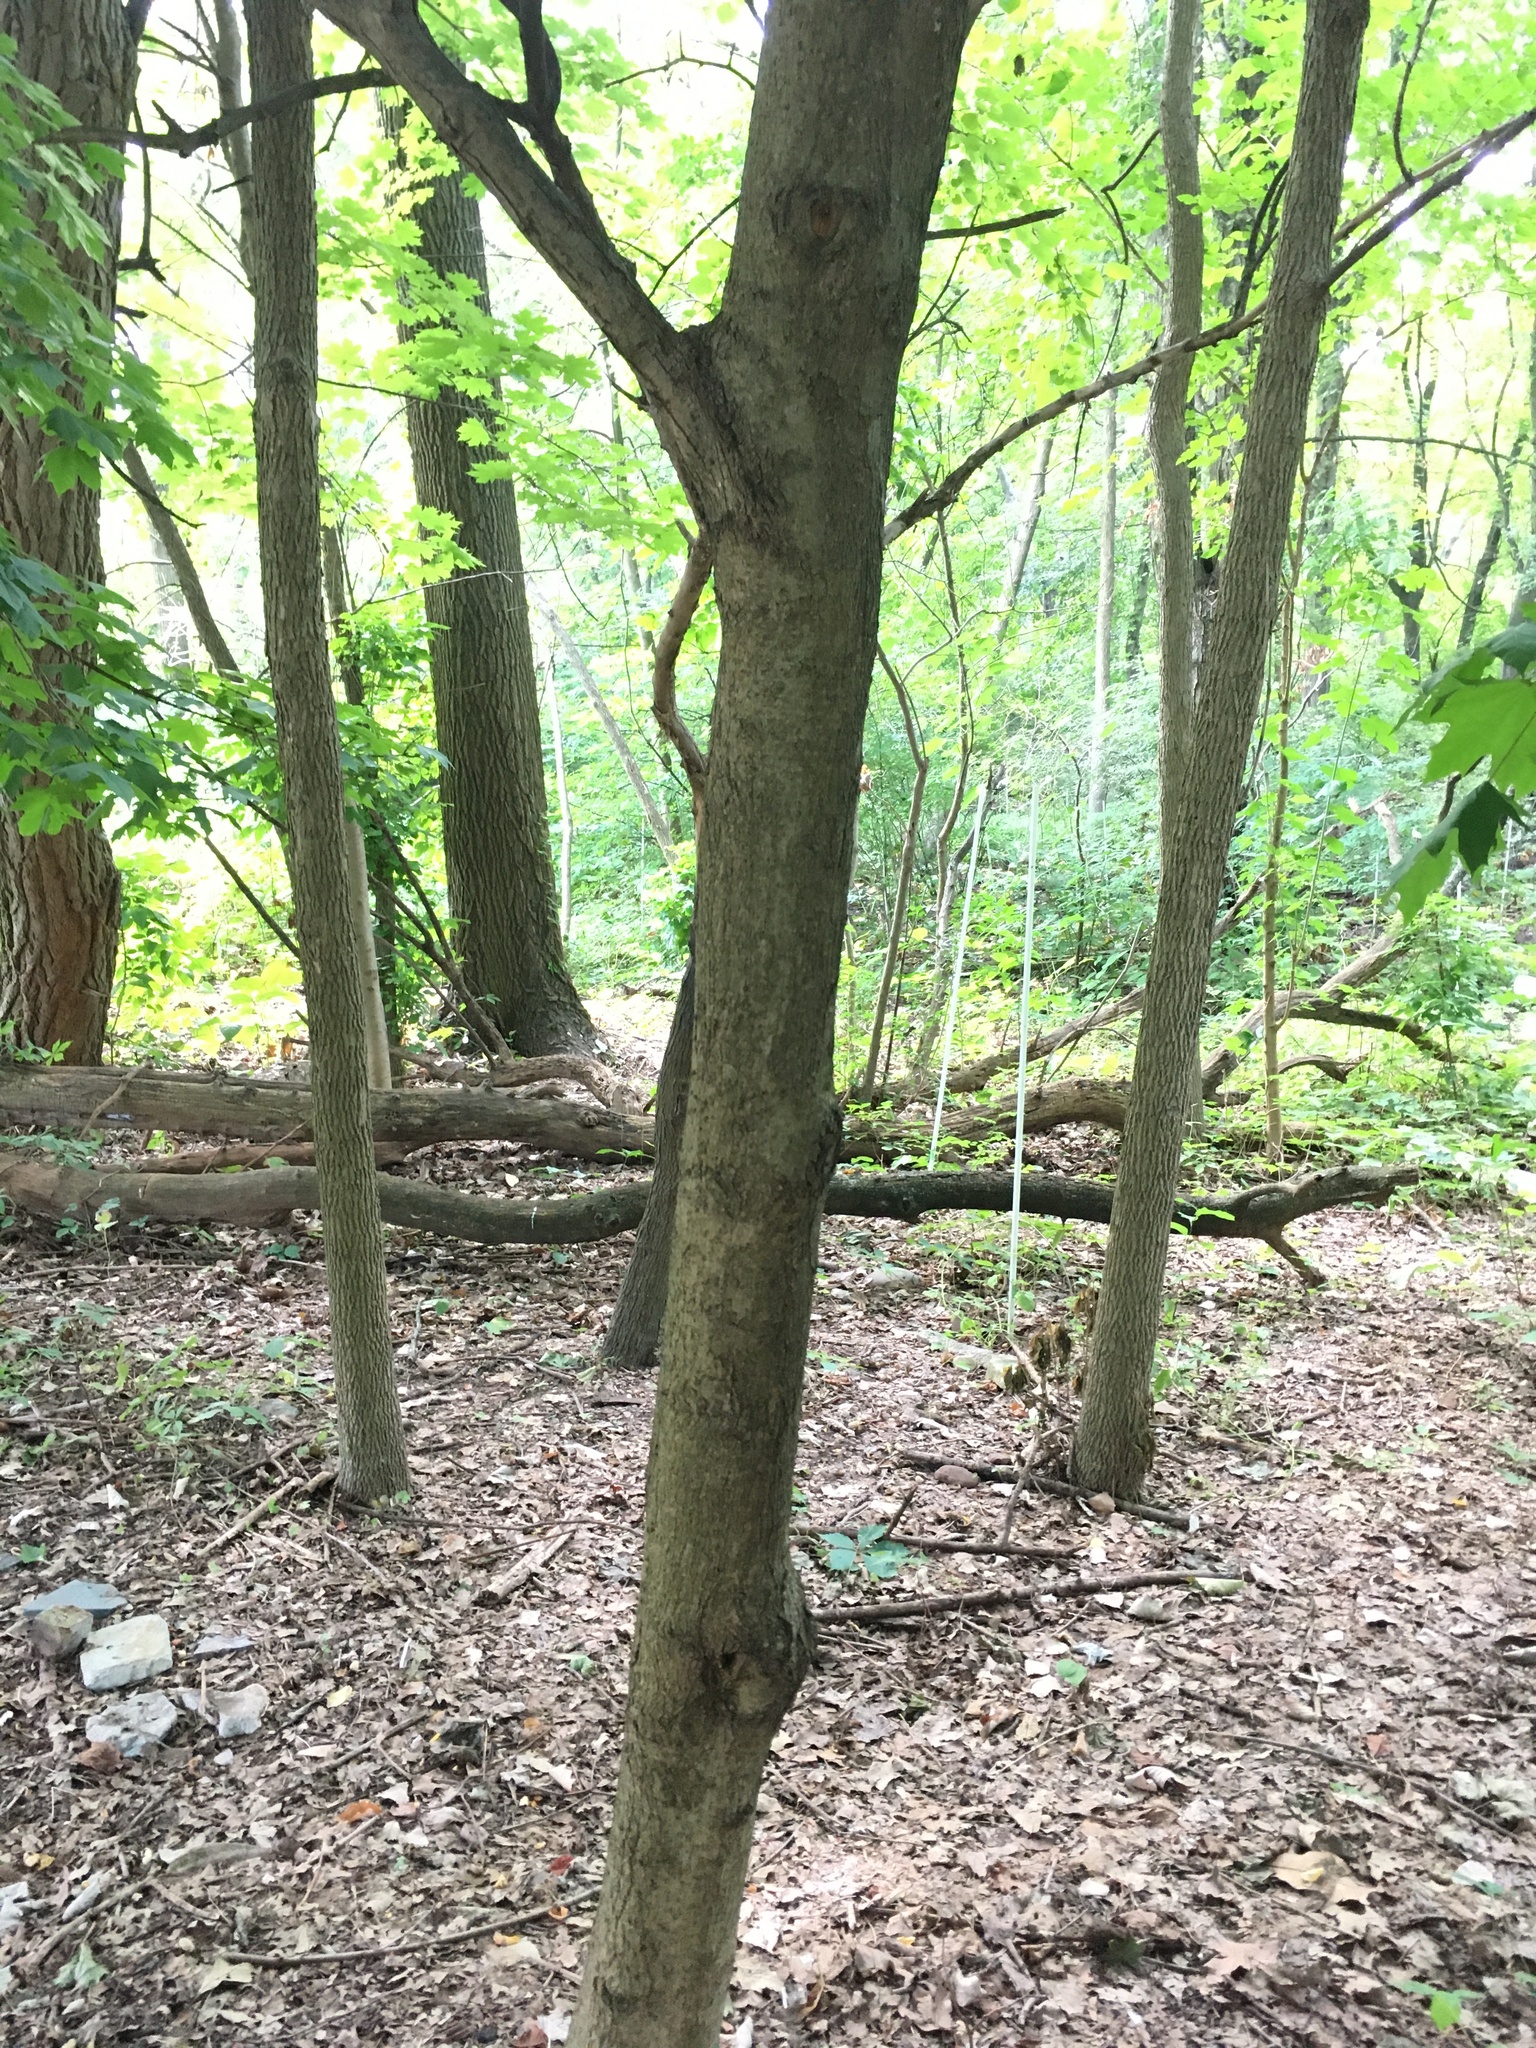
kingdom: Plantae
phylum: Tracheophyta
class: Magnoliopsida
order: Sapindales
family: Sapindaceae
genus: Acer
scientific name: Acer platanoides
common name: Norway maple
